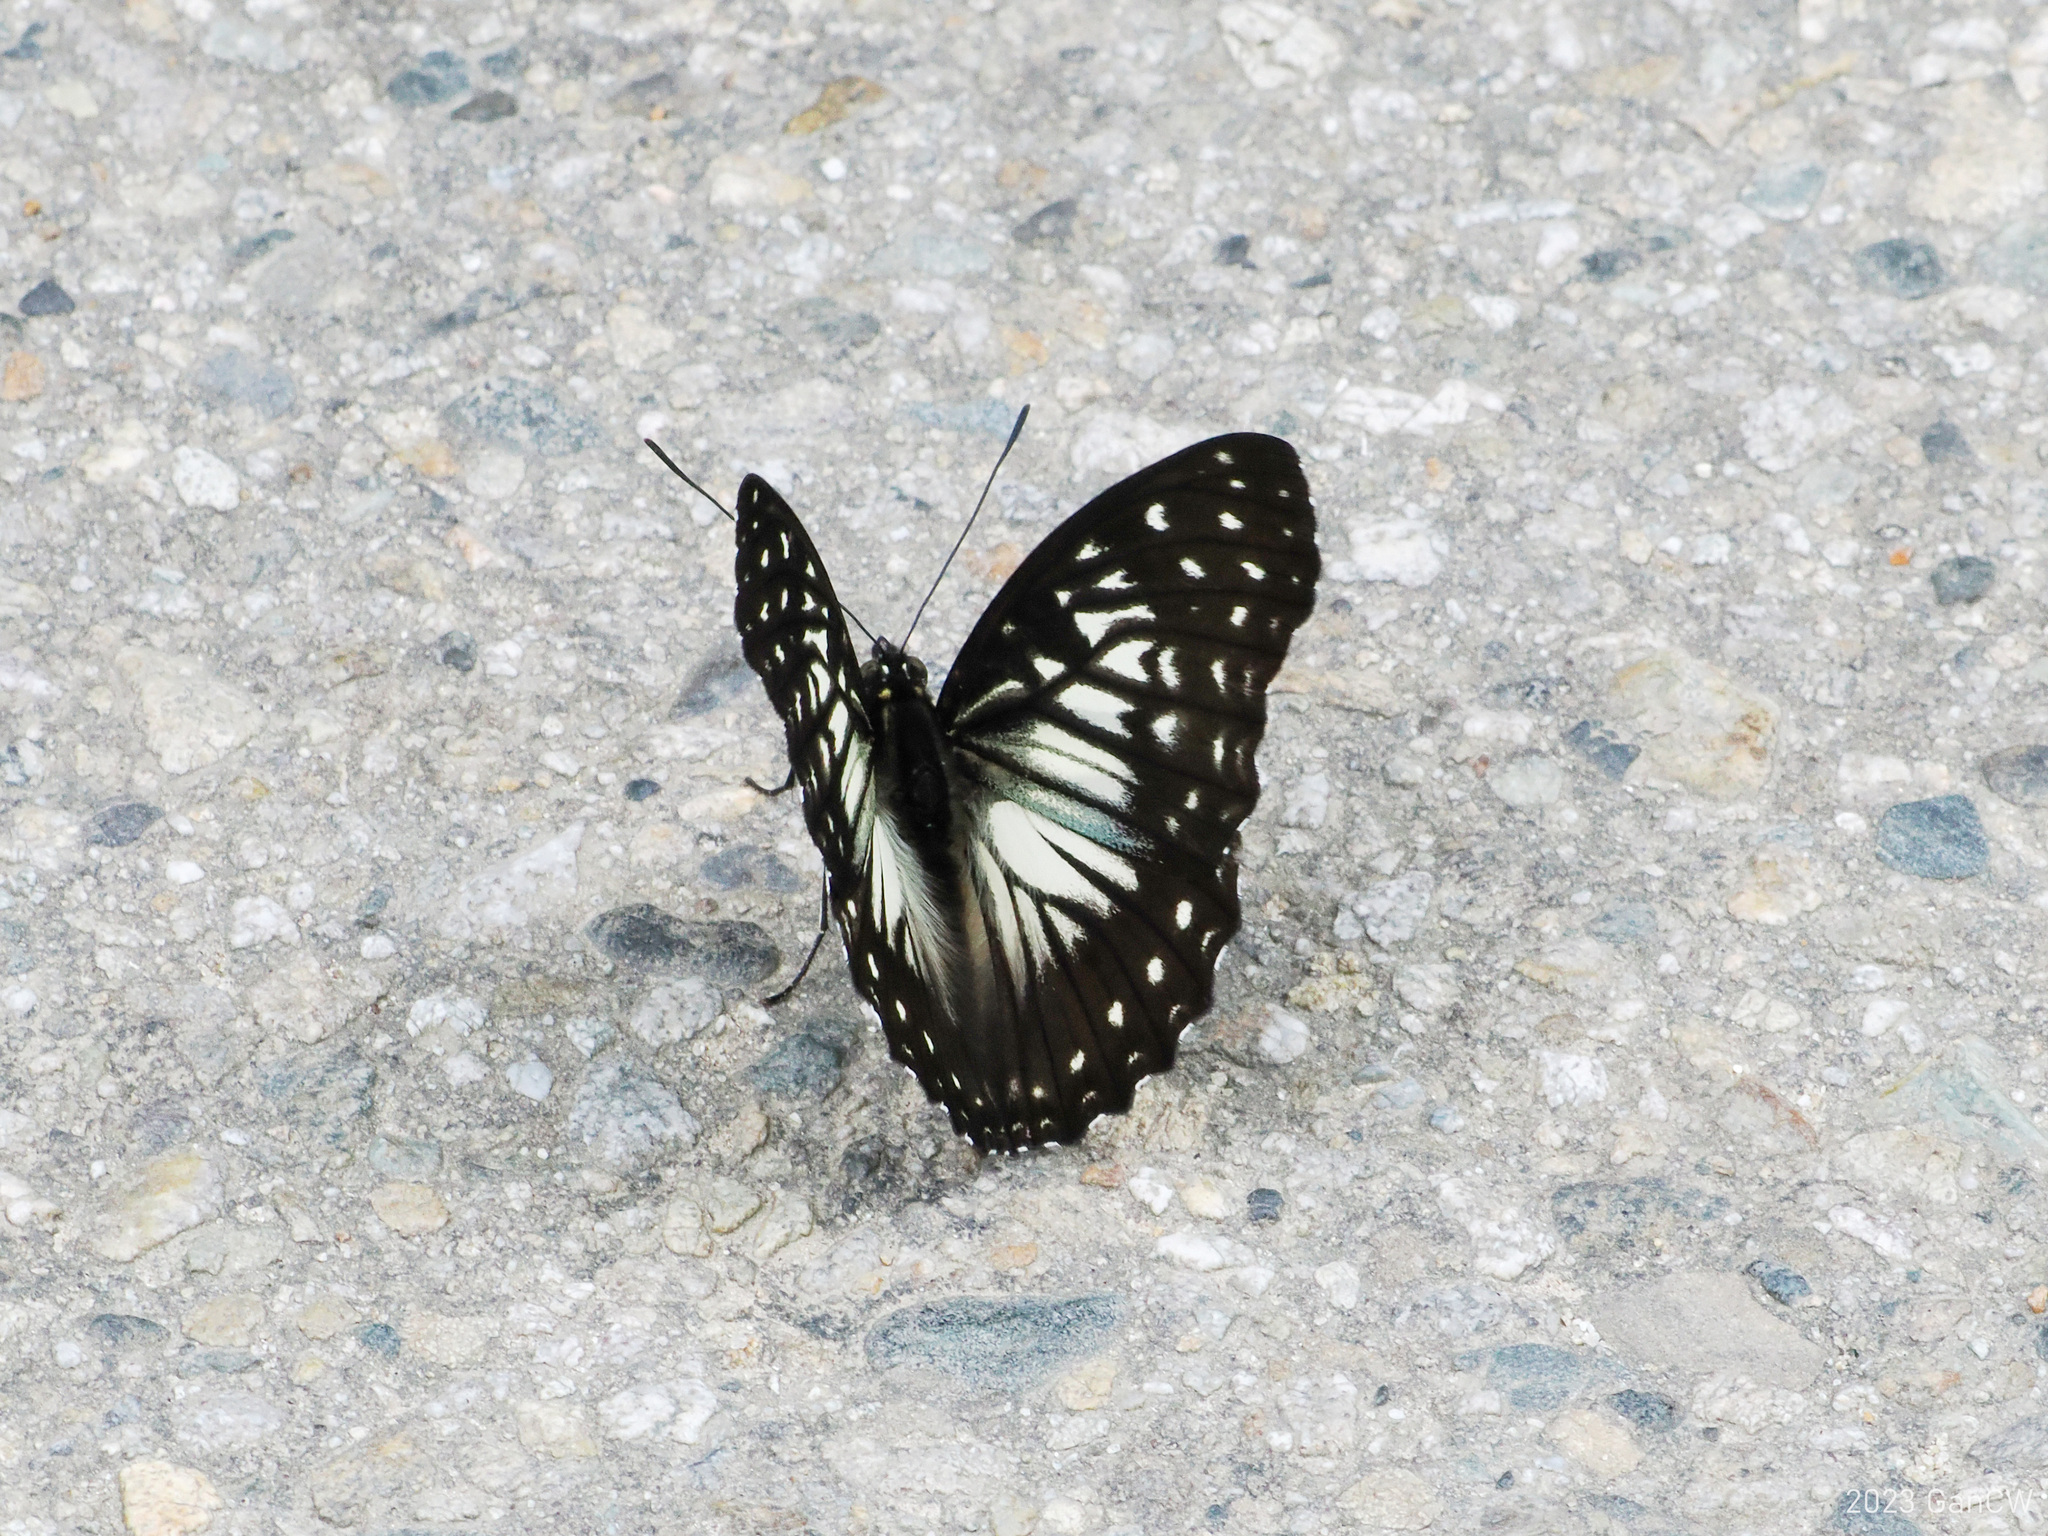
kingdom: Animalia
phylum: Arthropoda
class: Insecta
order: Lepidoptera
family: Nymphalidae
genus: Hestinalis
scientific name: Hestinalis divona
